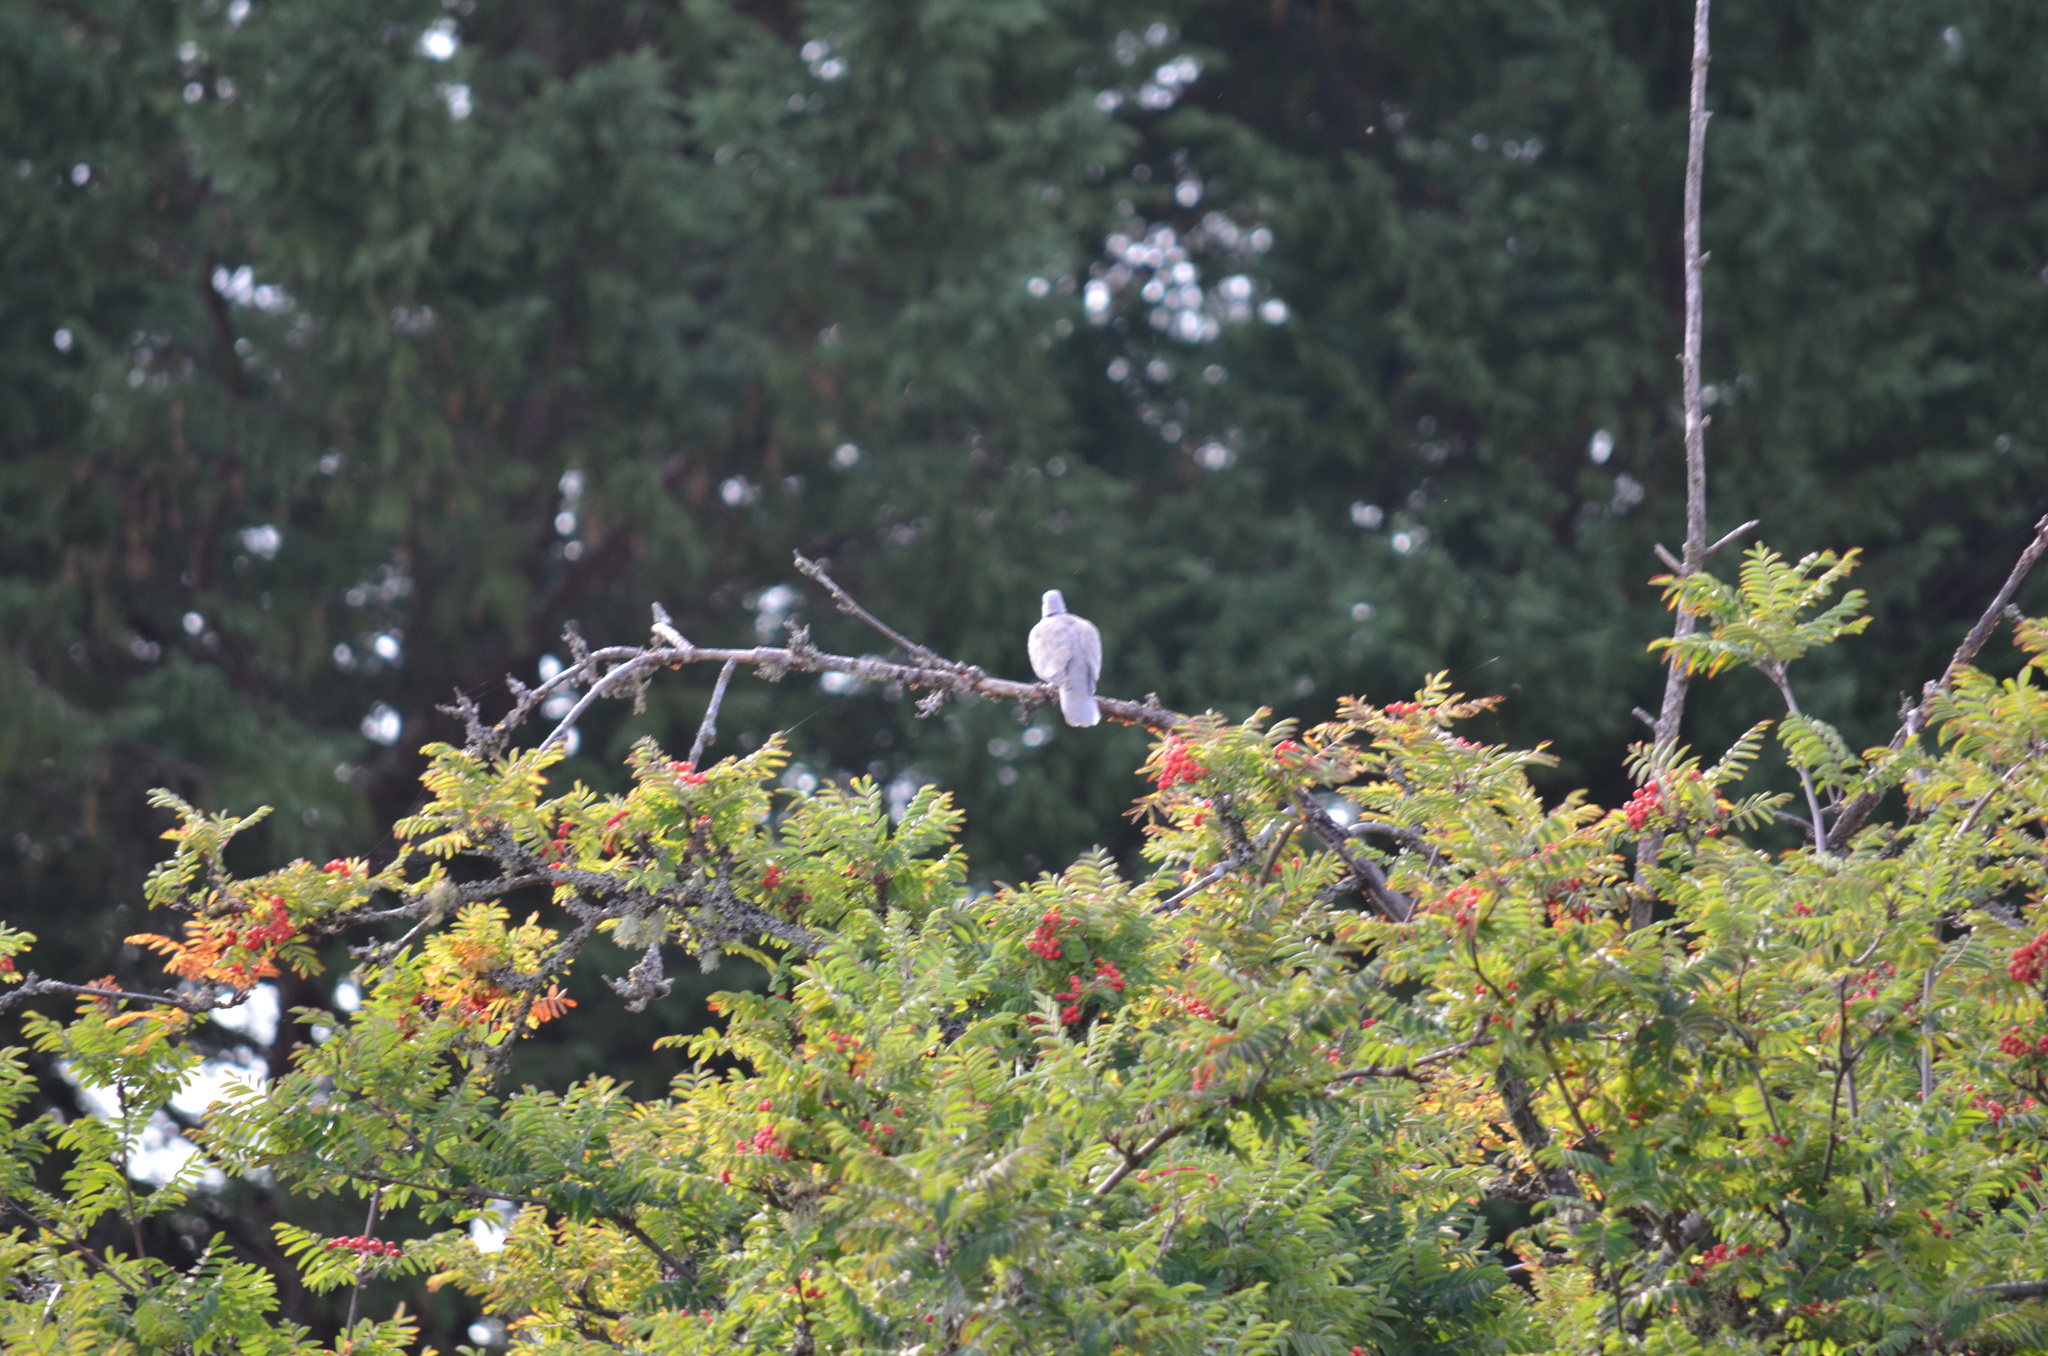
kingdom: Animalia
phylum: Chordata
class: Aves
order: Columbiformes
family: Columbidae
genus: Streptopelia
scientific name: Streptopelia decaocto
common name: Eurasian collared dove
